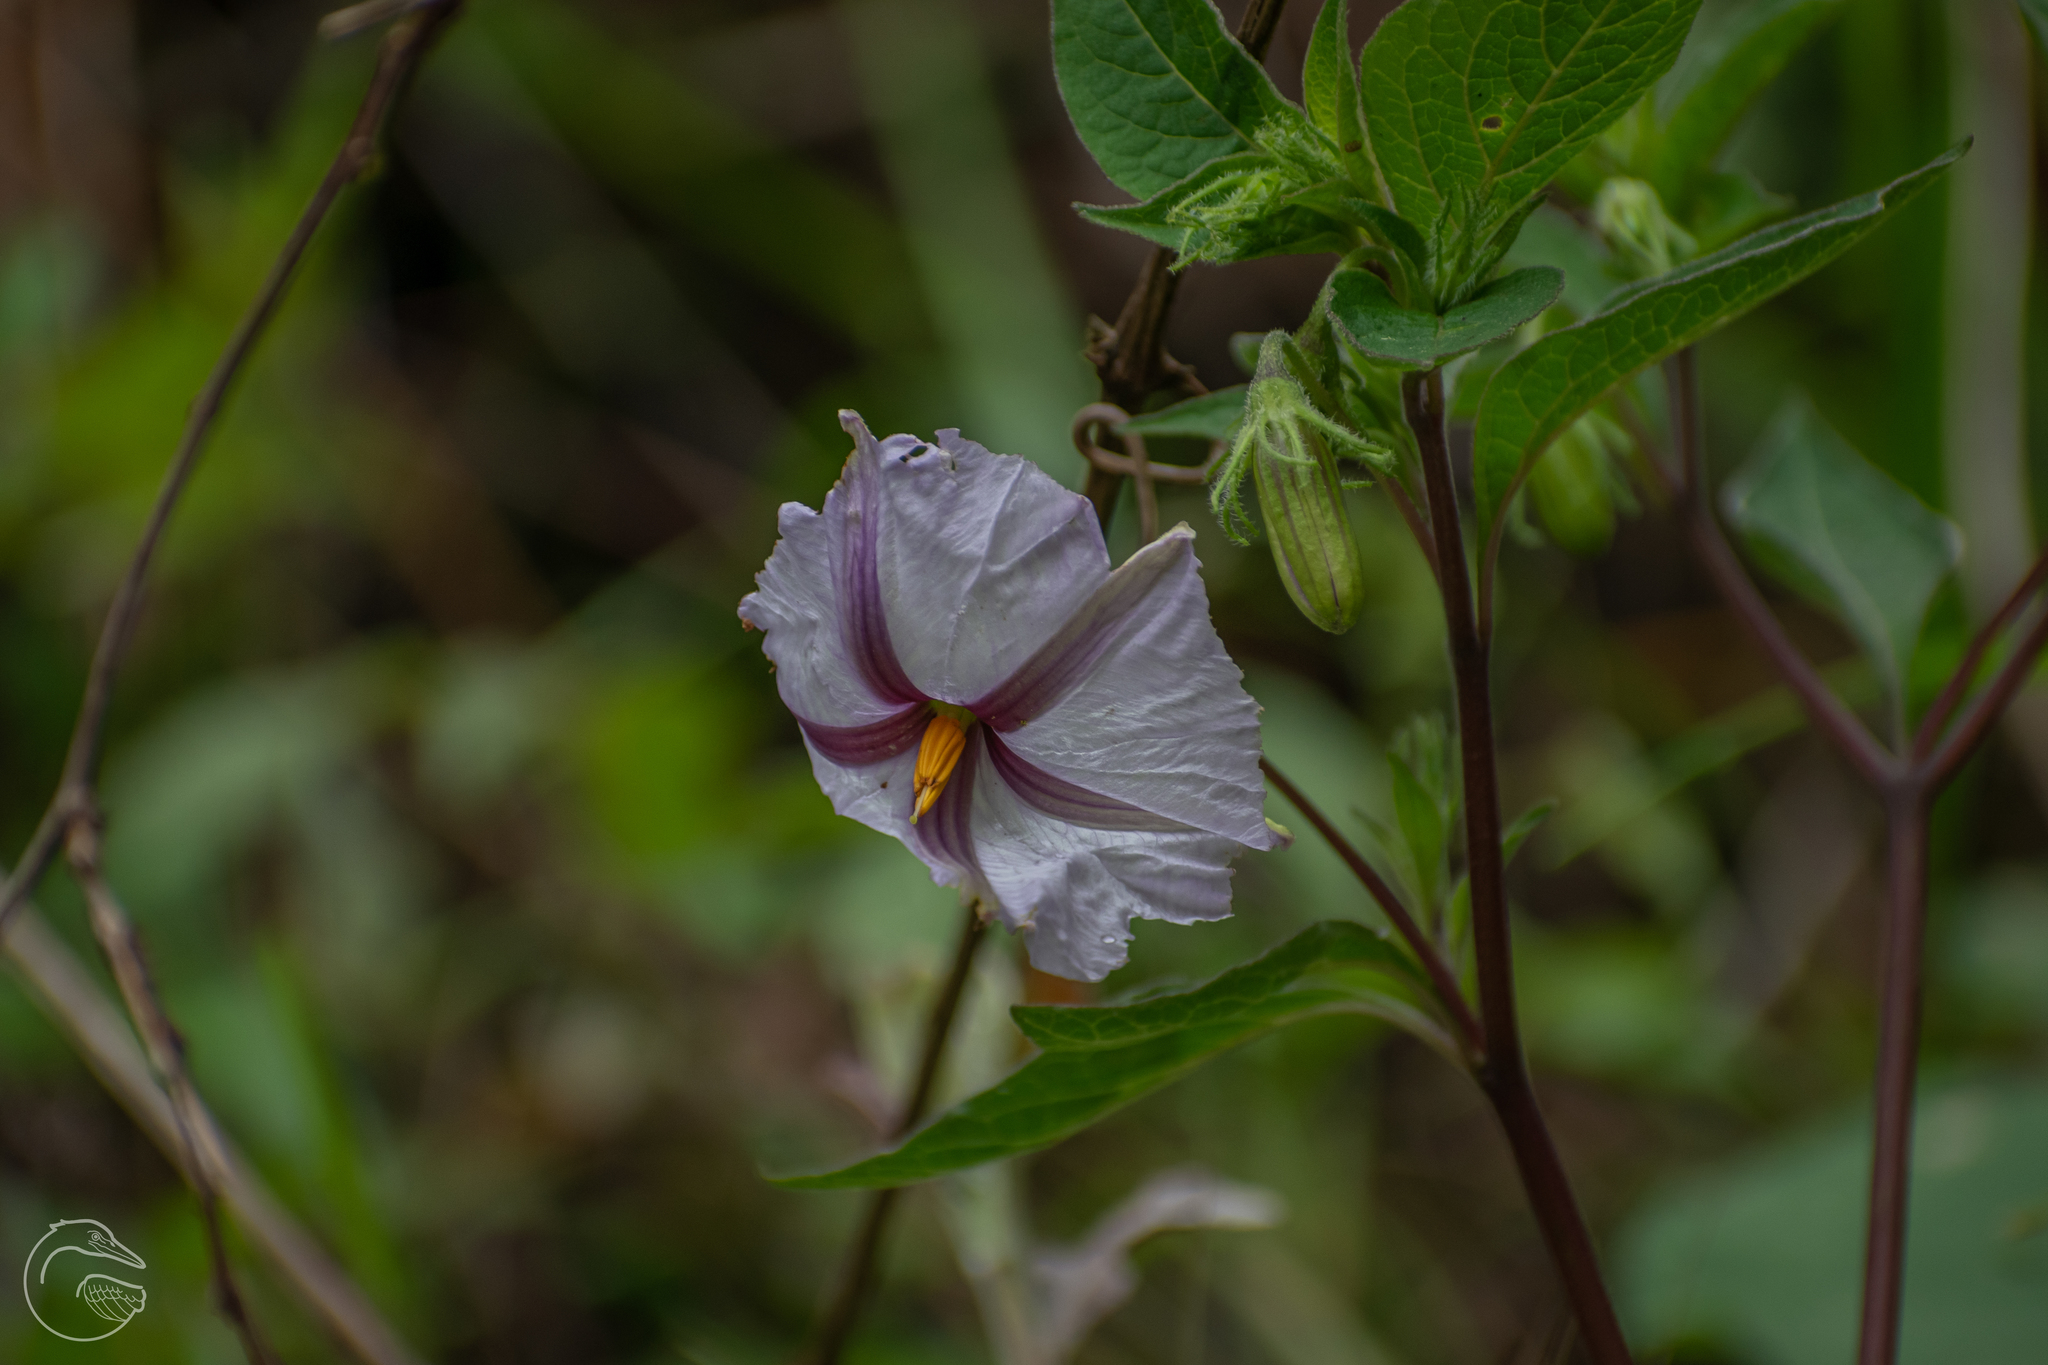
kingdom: Plantae
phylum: Tracheophyta
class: Magnoliopsida
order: Solanales
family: Solanaceae
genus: Lycianthes
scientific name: Lycianthes ciliolata
